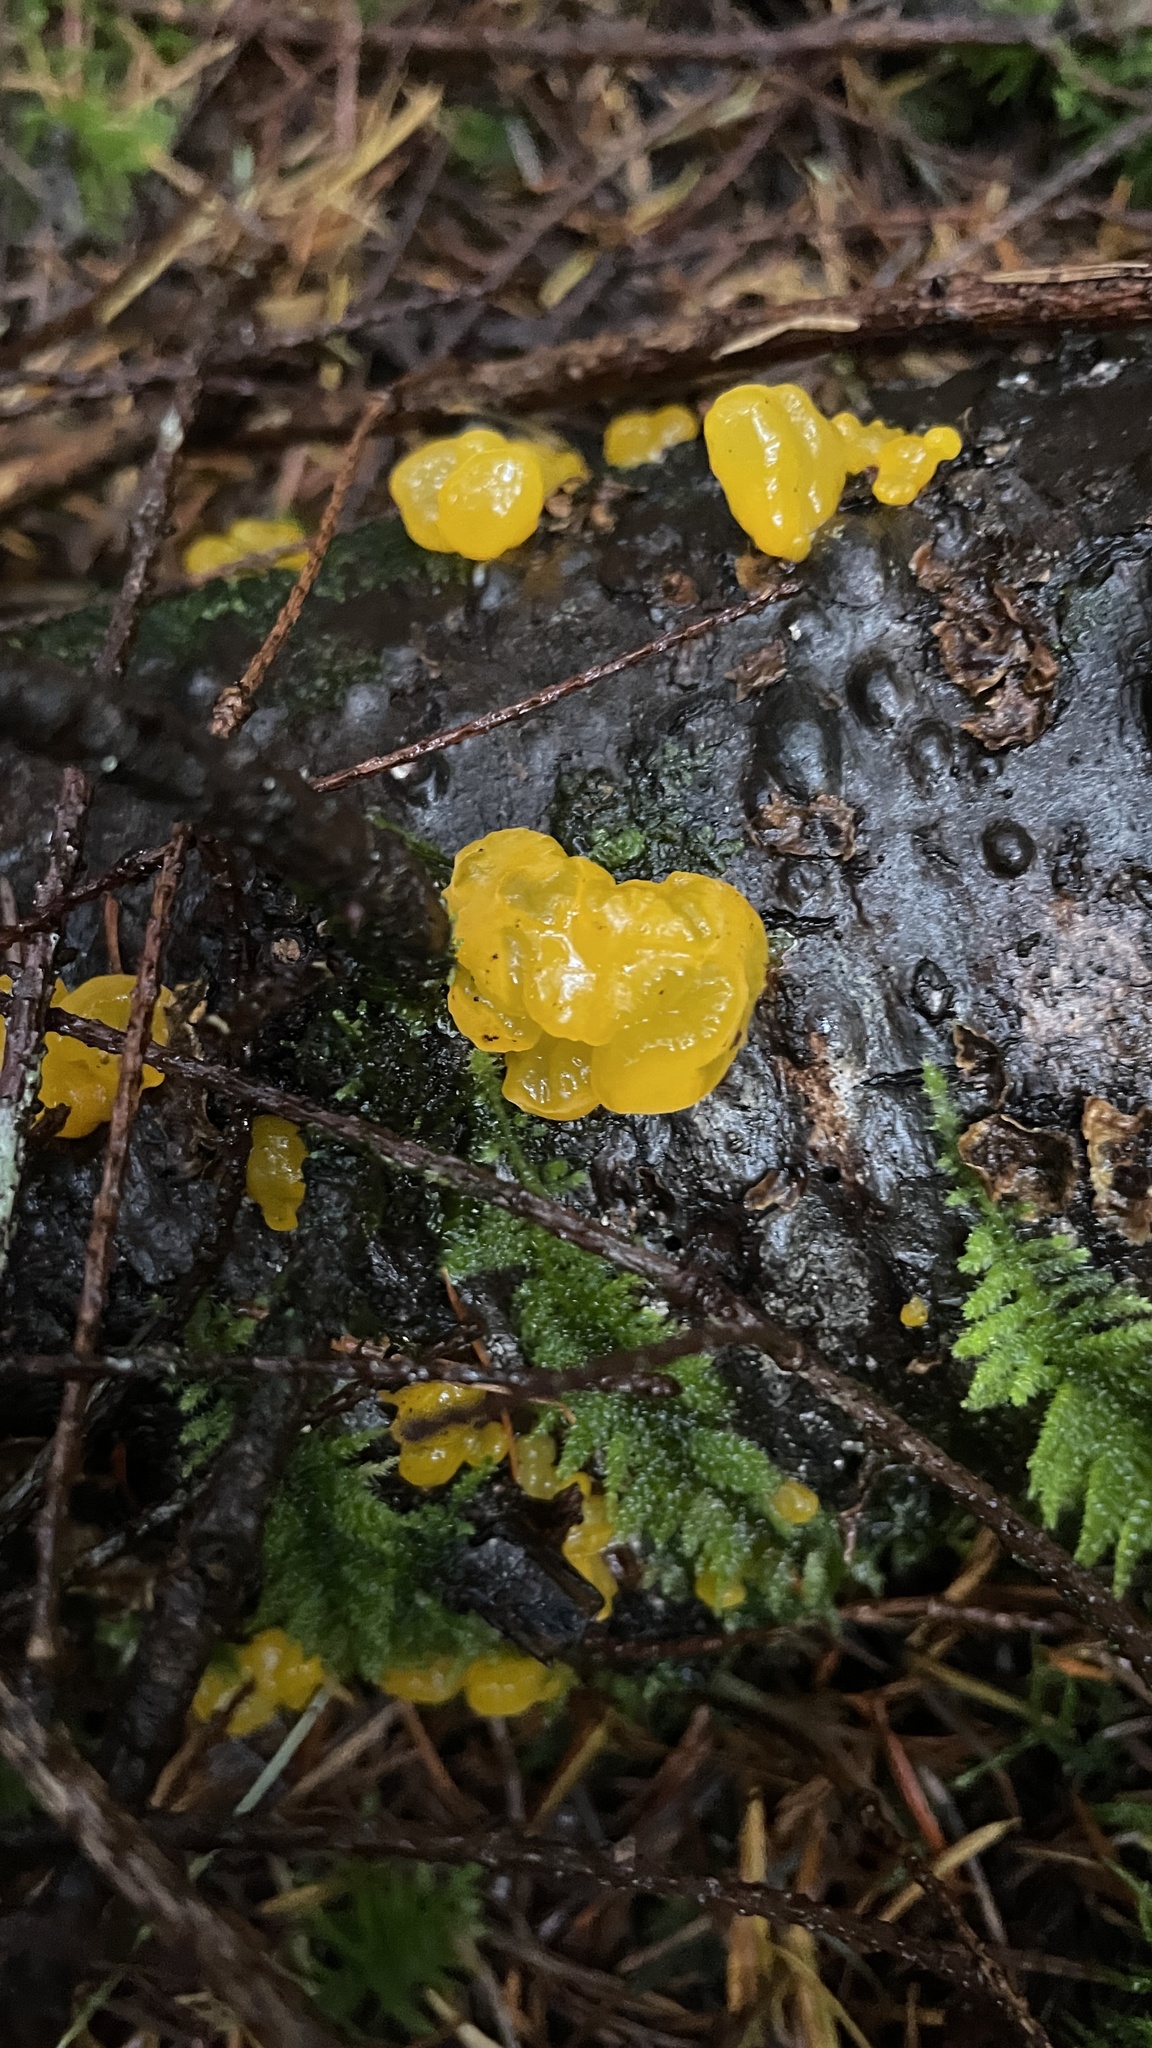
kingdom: Fungi
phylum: Basidiomycota
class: Dacrymycetes
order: Dacrymycetales
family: Dacrymycetaceae
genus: Dacrymyces
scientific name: Dacrymyces chrysospermus
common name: Orange jelly spot
